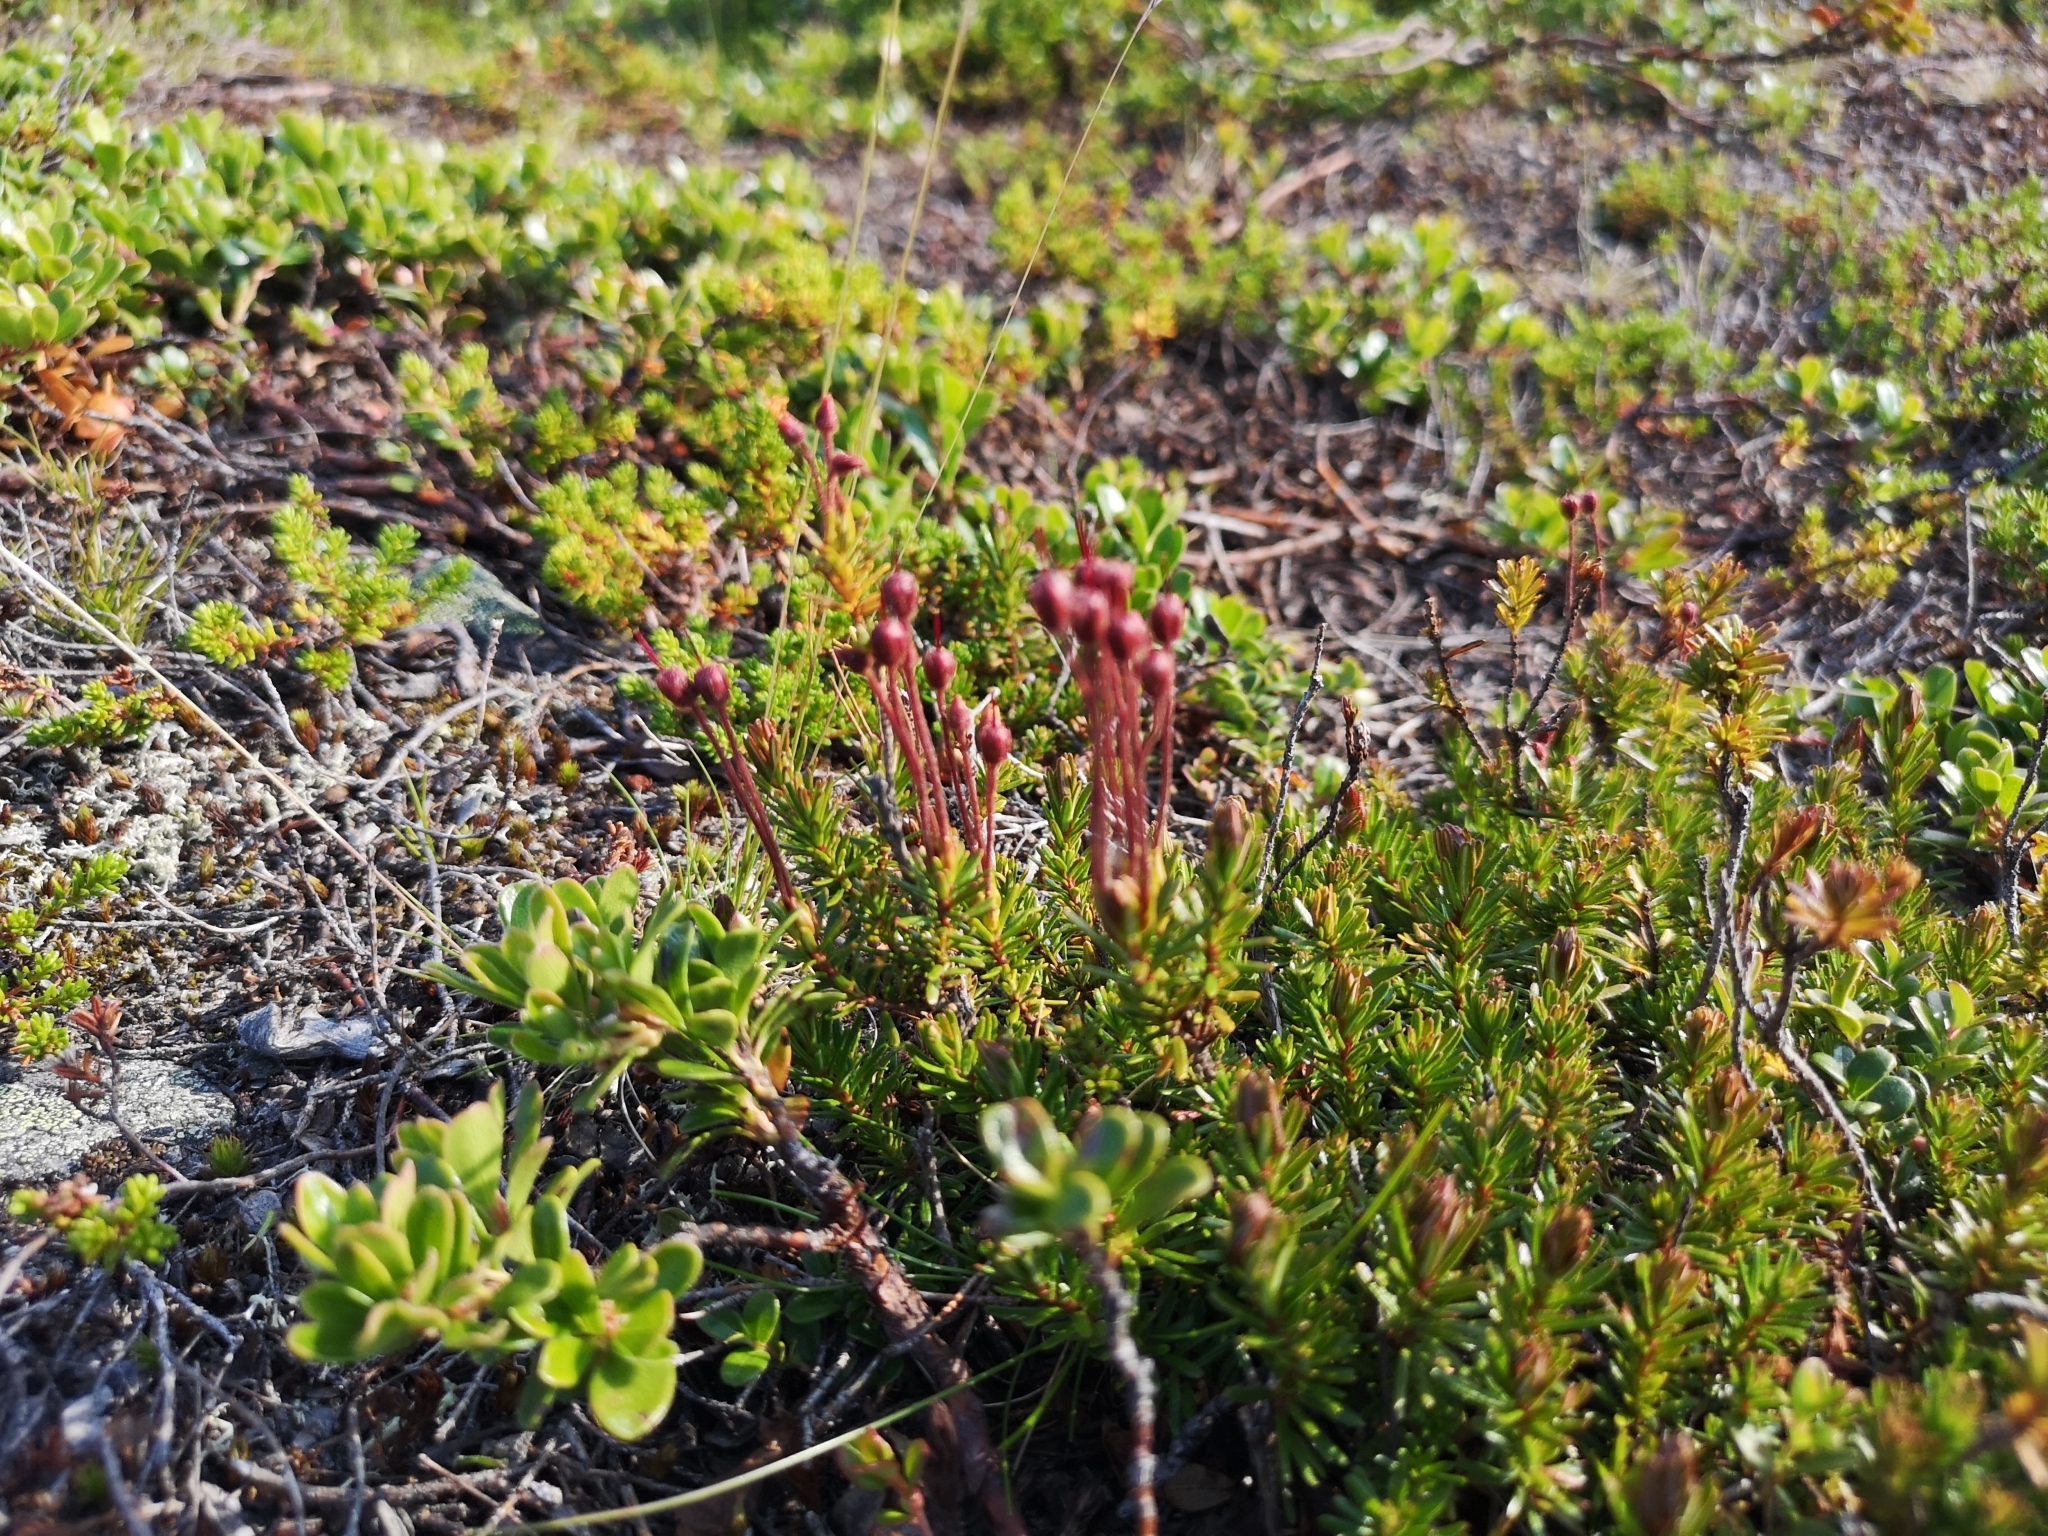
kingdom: Plantae
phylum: Tracheophyta
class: Magnoliopsida
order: Ericales
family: Ericaceae
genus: Phyllodoce
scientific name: Phyllodoce caerulea
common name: Blue heath
